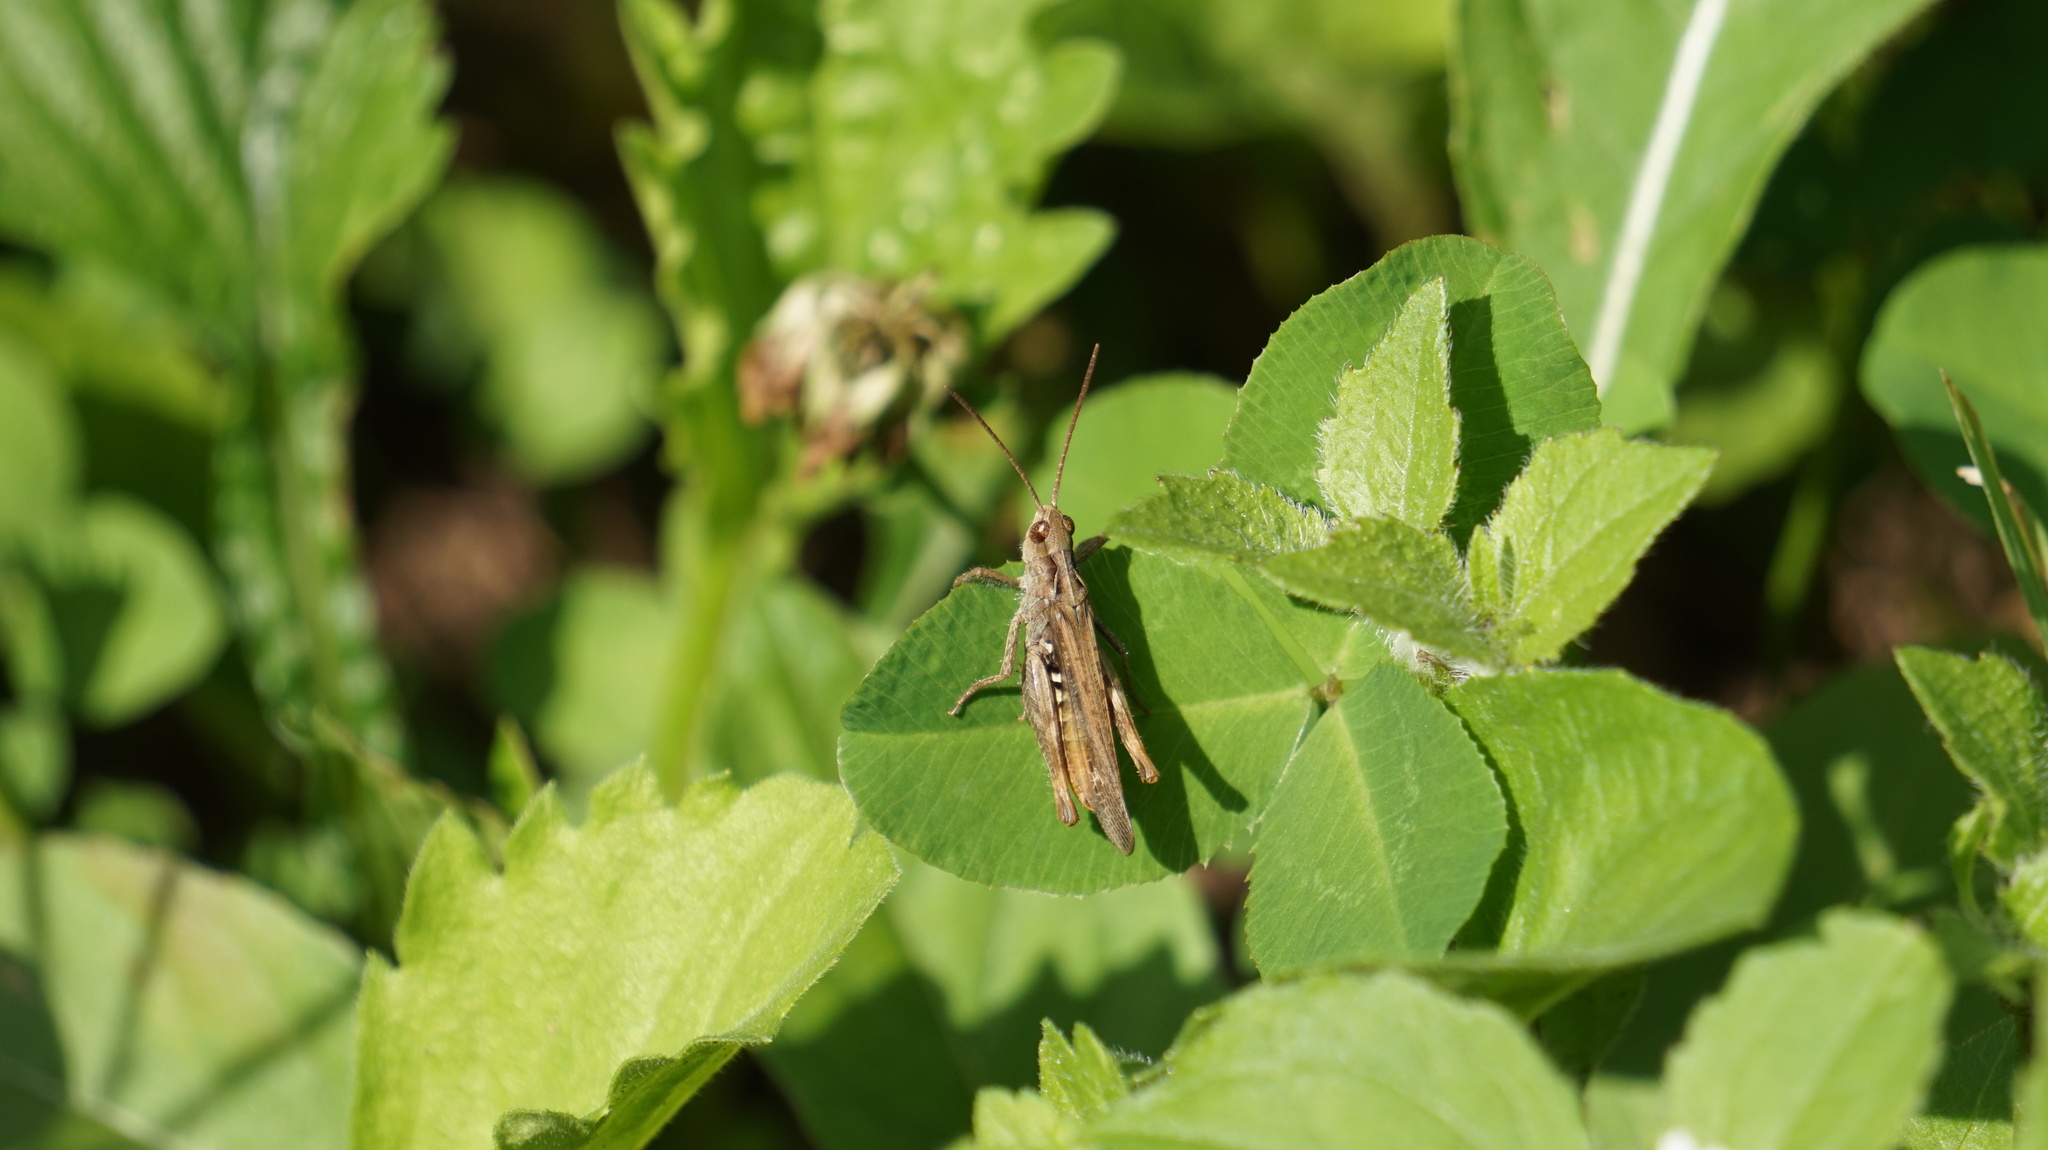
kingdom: Animalia
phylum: Arthropoda
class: Insecta
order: Orthoptera
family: Acrididae
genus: Chorthippus
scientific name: Chorthippus biguttulus
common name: Bow-winged grasshopper
